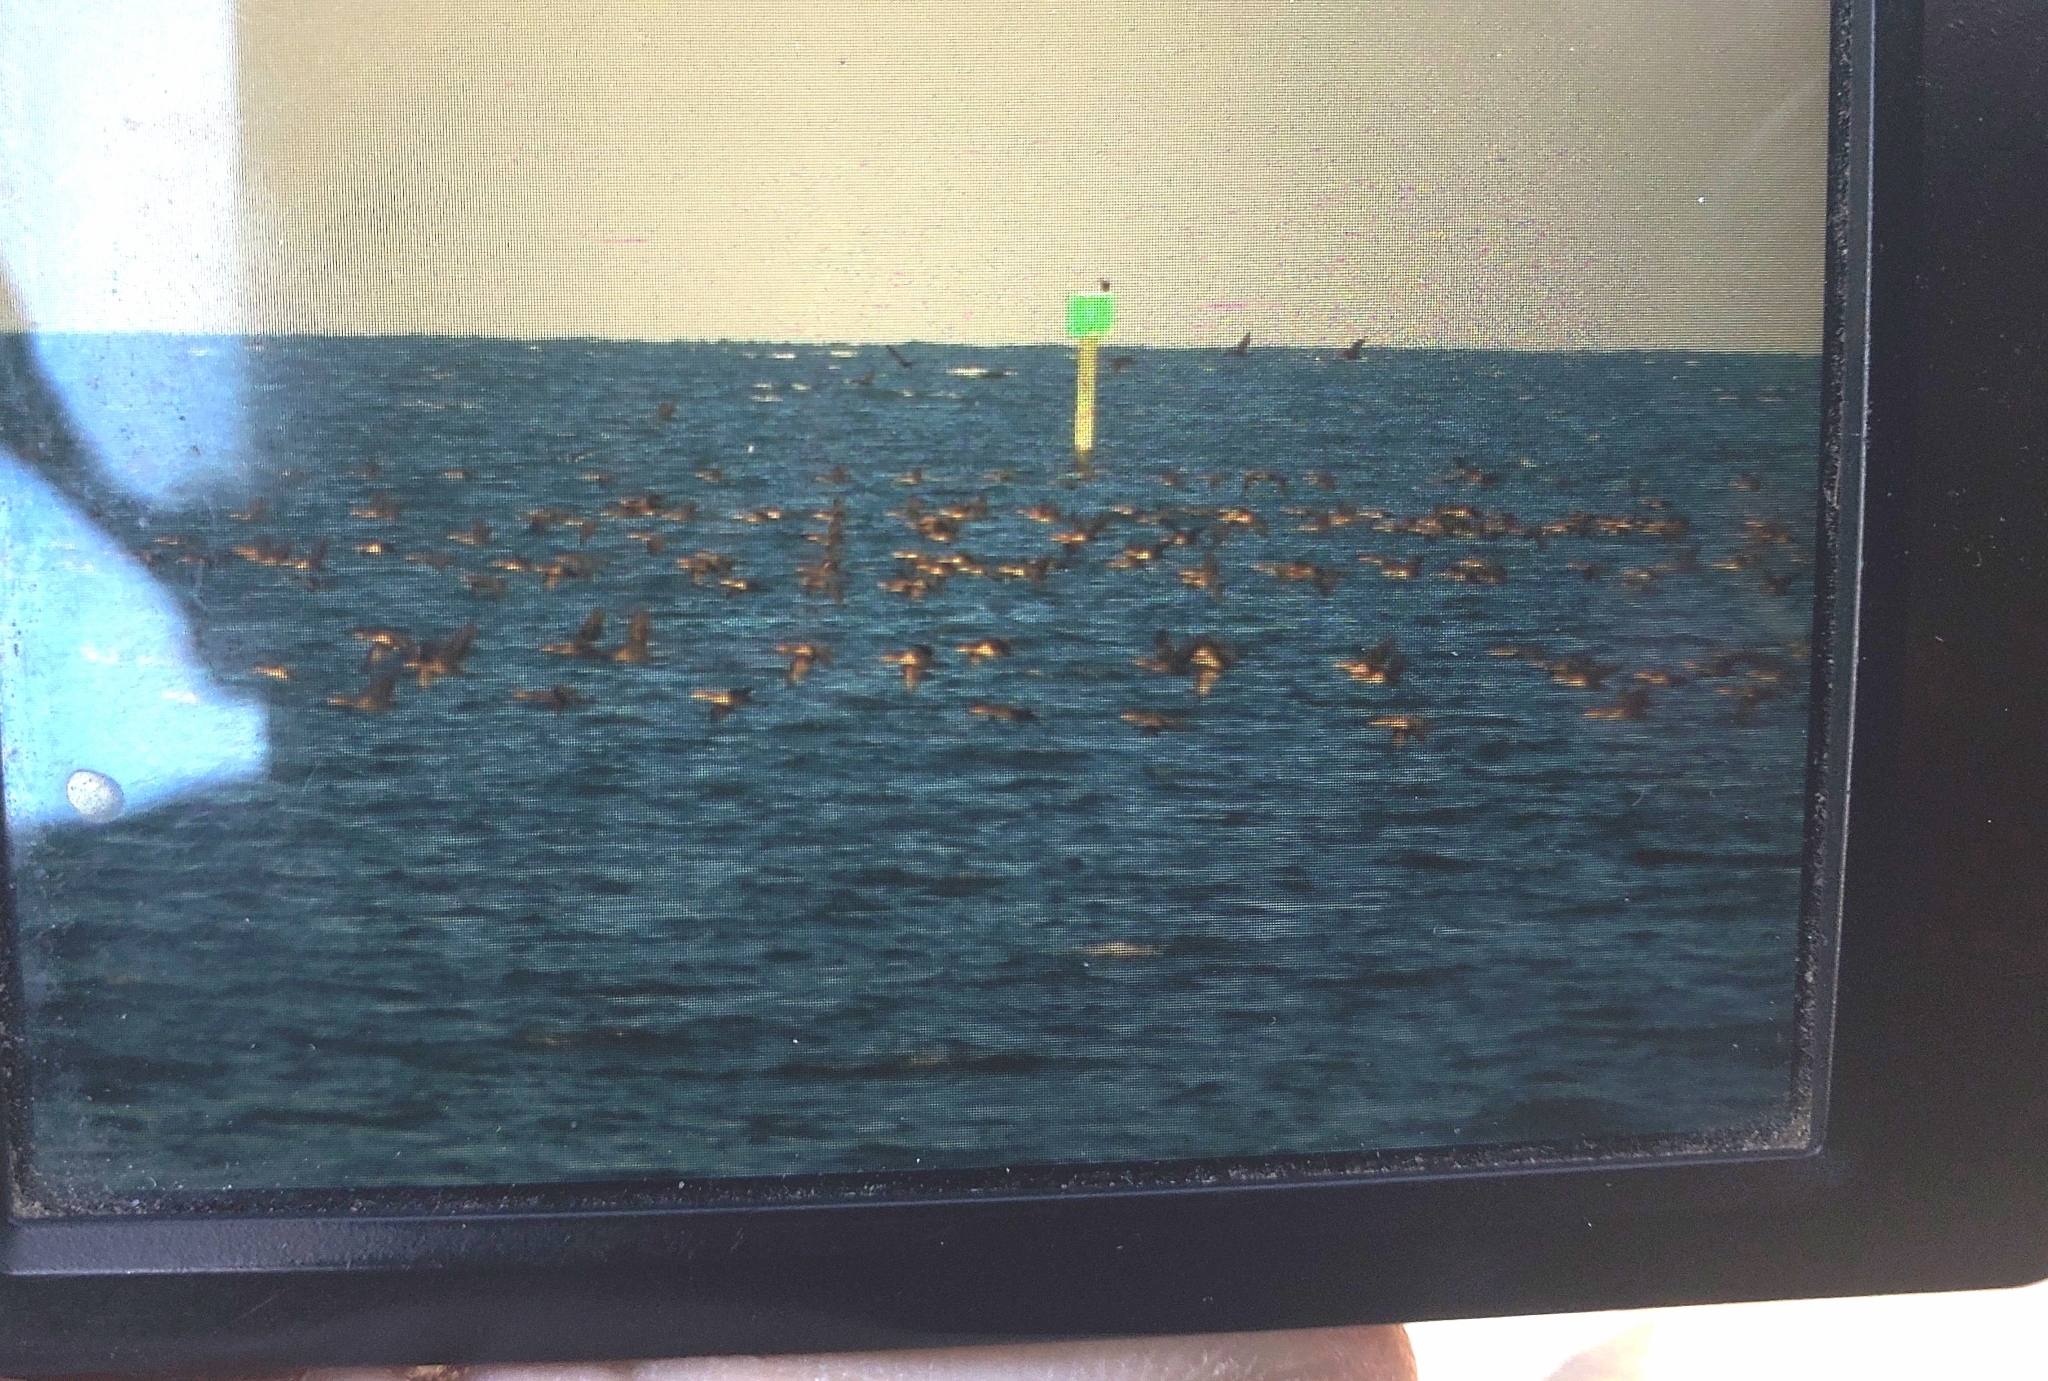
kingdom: Animalia
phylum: Chordata
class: Aves
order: Suliformes
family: Phalacrocoracidae
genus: Phalacrocorax
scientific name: Phalacrocorax auritus
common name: Double-crested cormorant
